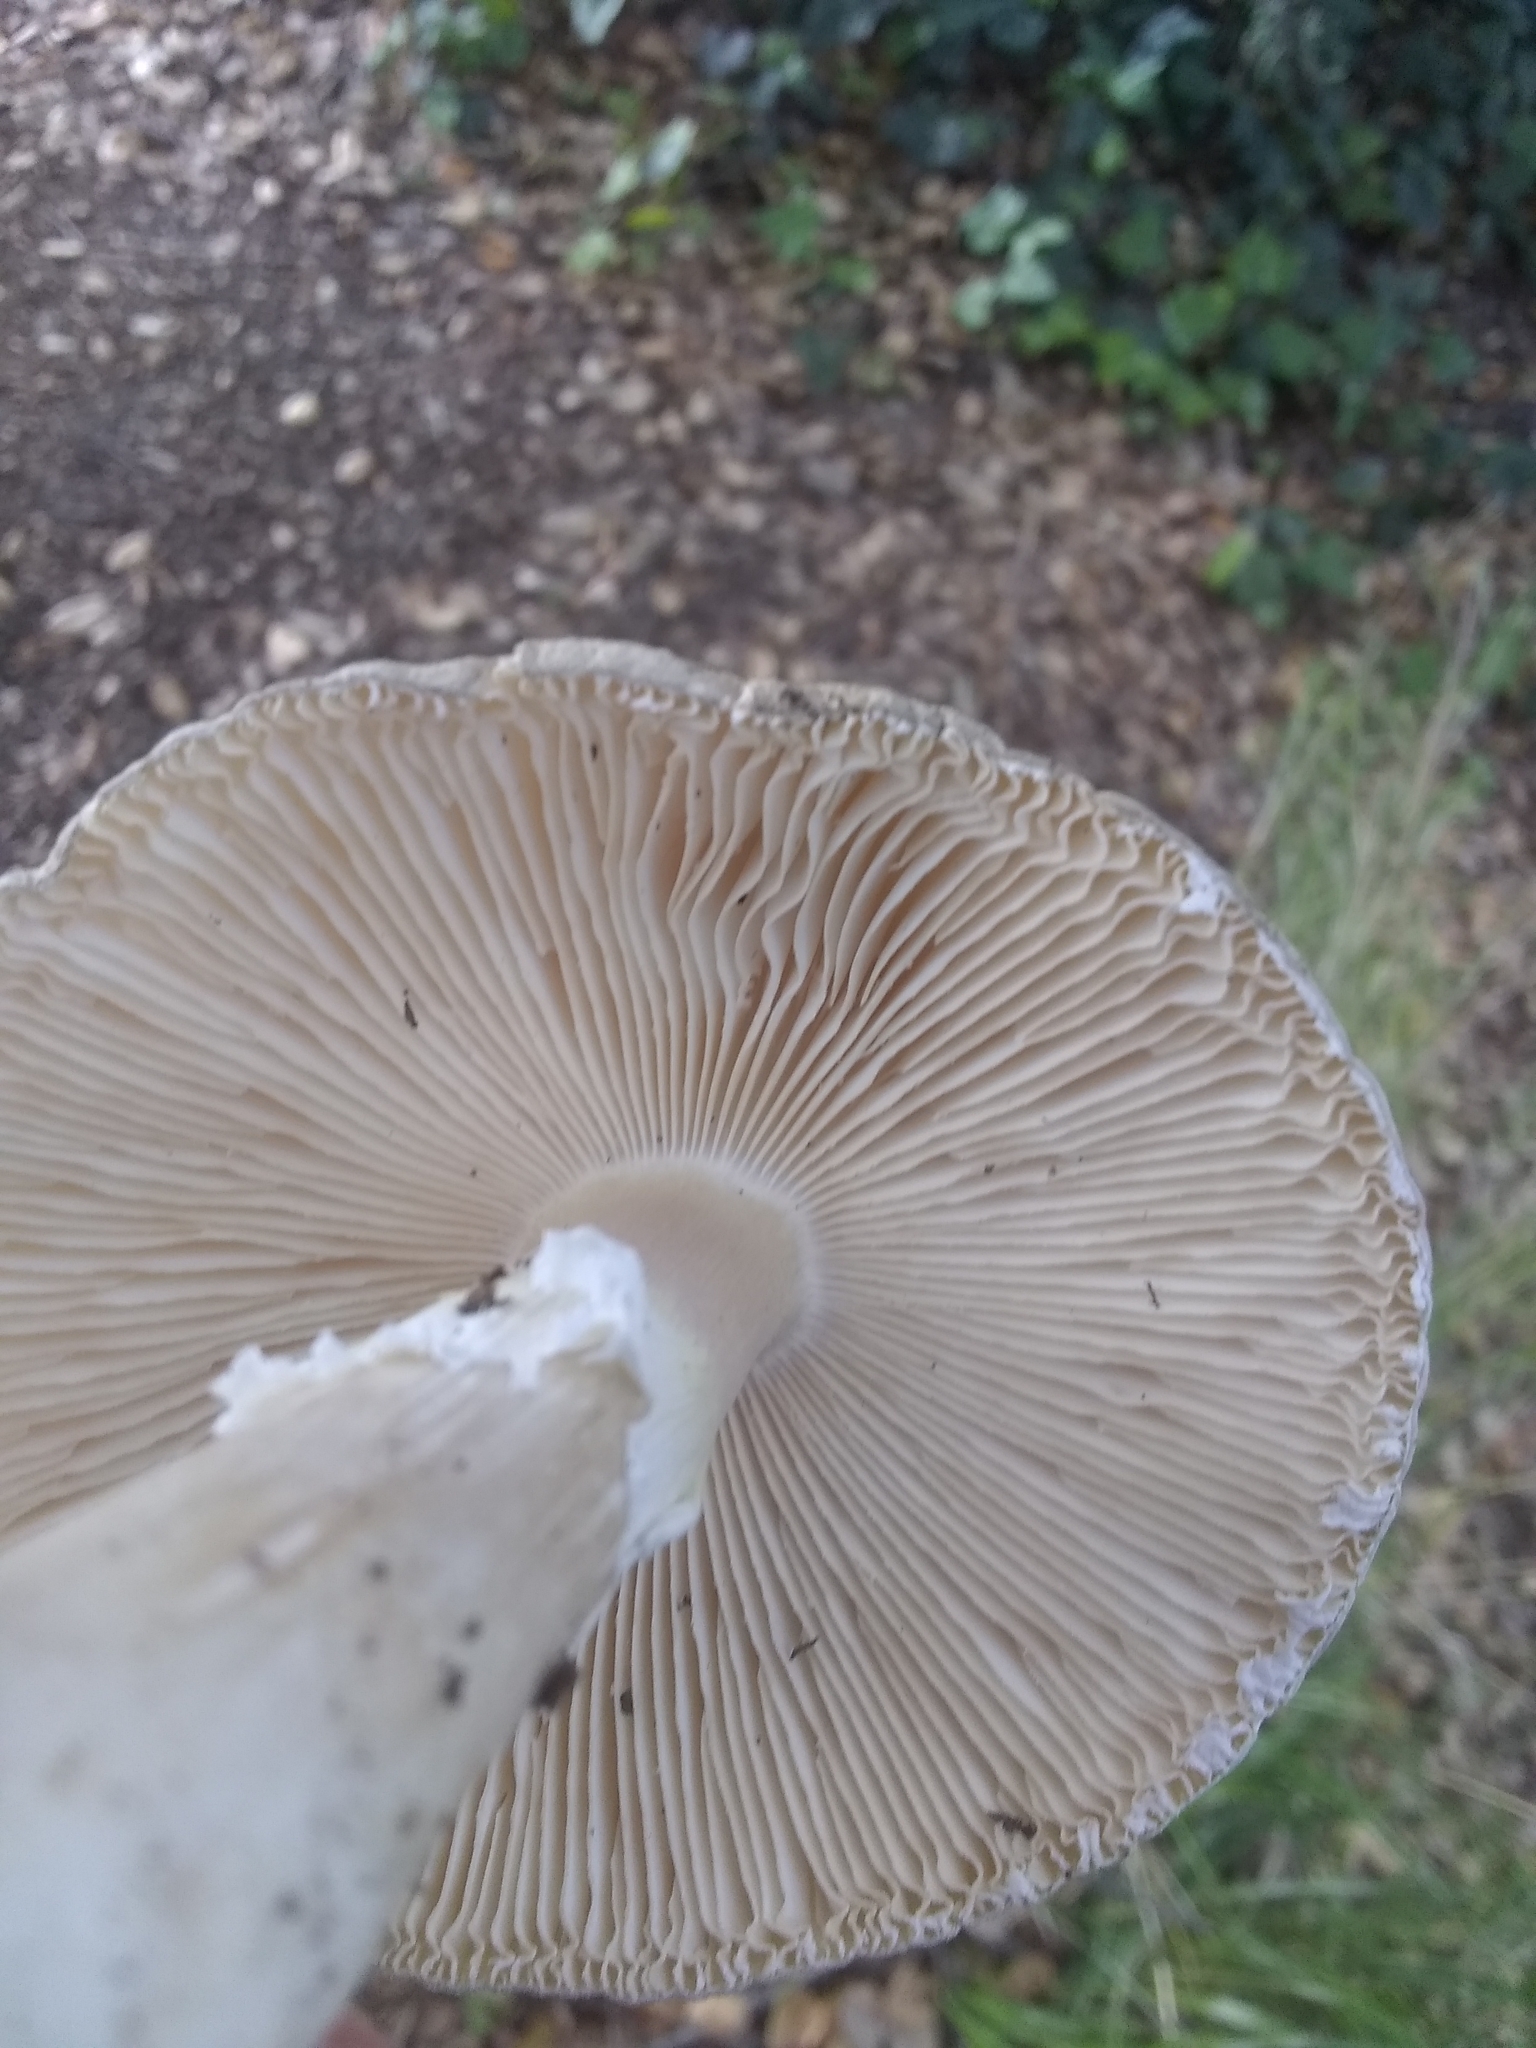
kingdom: Fungi
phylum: Basidiomycota
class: Agaricomycetes
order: Agaricales
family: Amanitaceae
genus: Amanita
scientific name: Amanita phalloides
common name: Death cap
